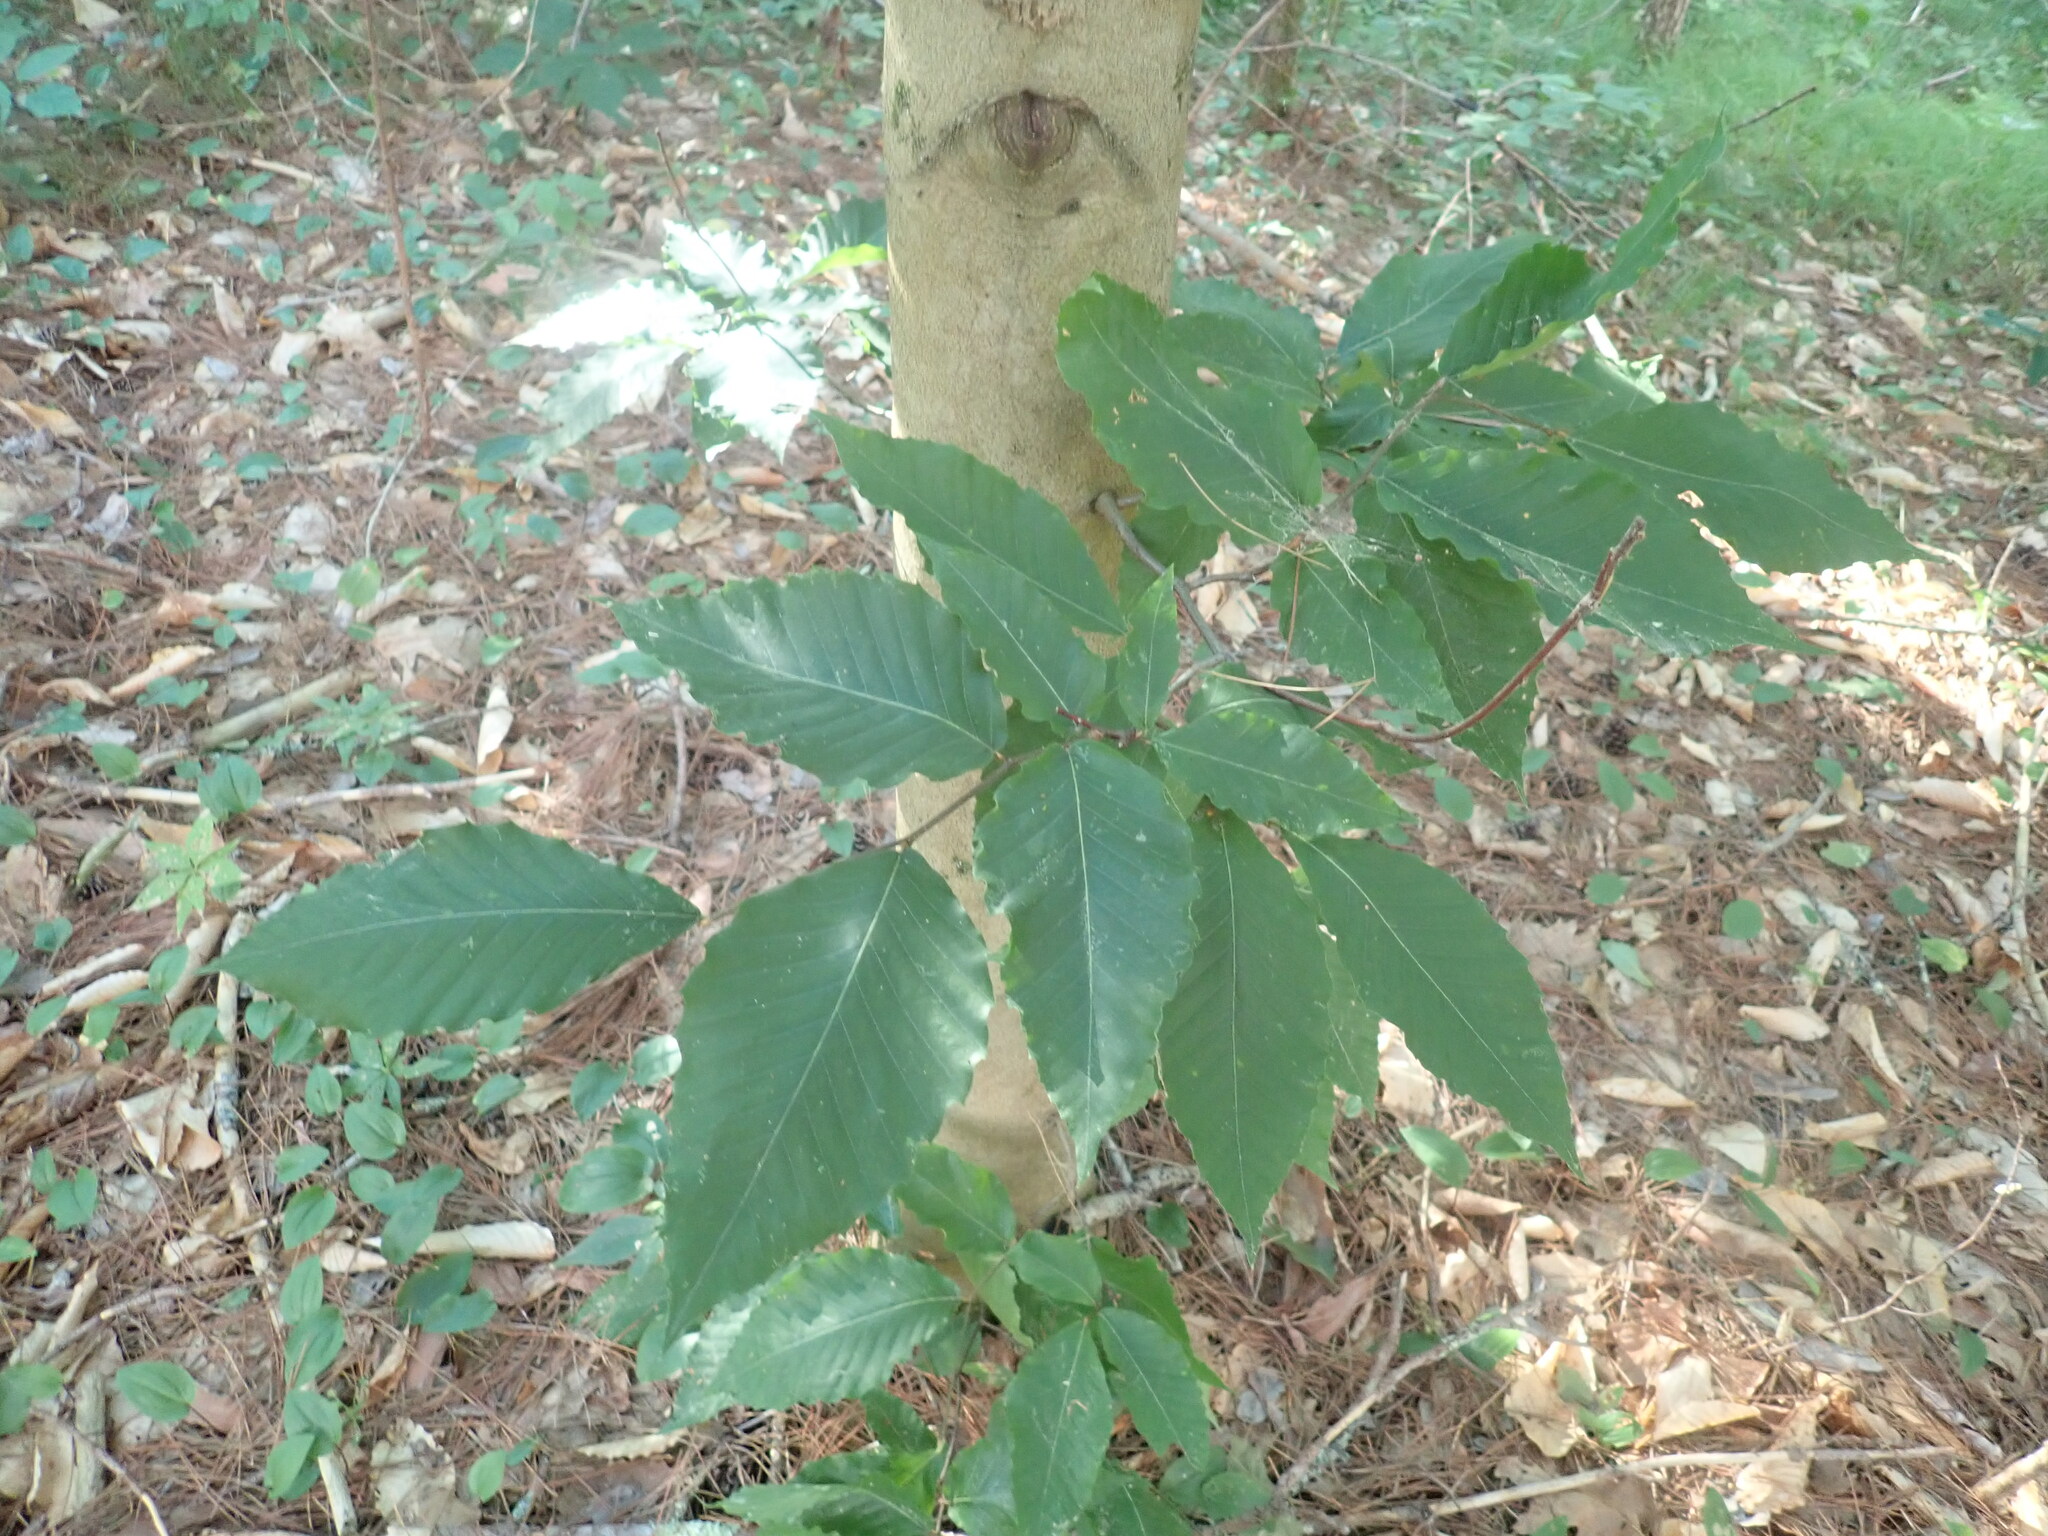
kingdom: Plantae
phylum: Tracheophyta
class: Magnoliopsida
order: Fagales
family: Fagaceae
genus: Fagus
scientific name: Fagus grandifolia
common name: American beech
